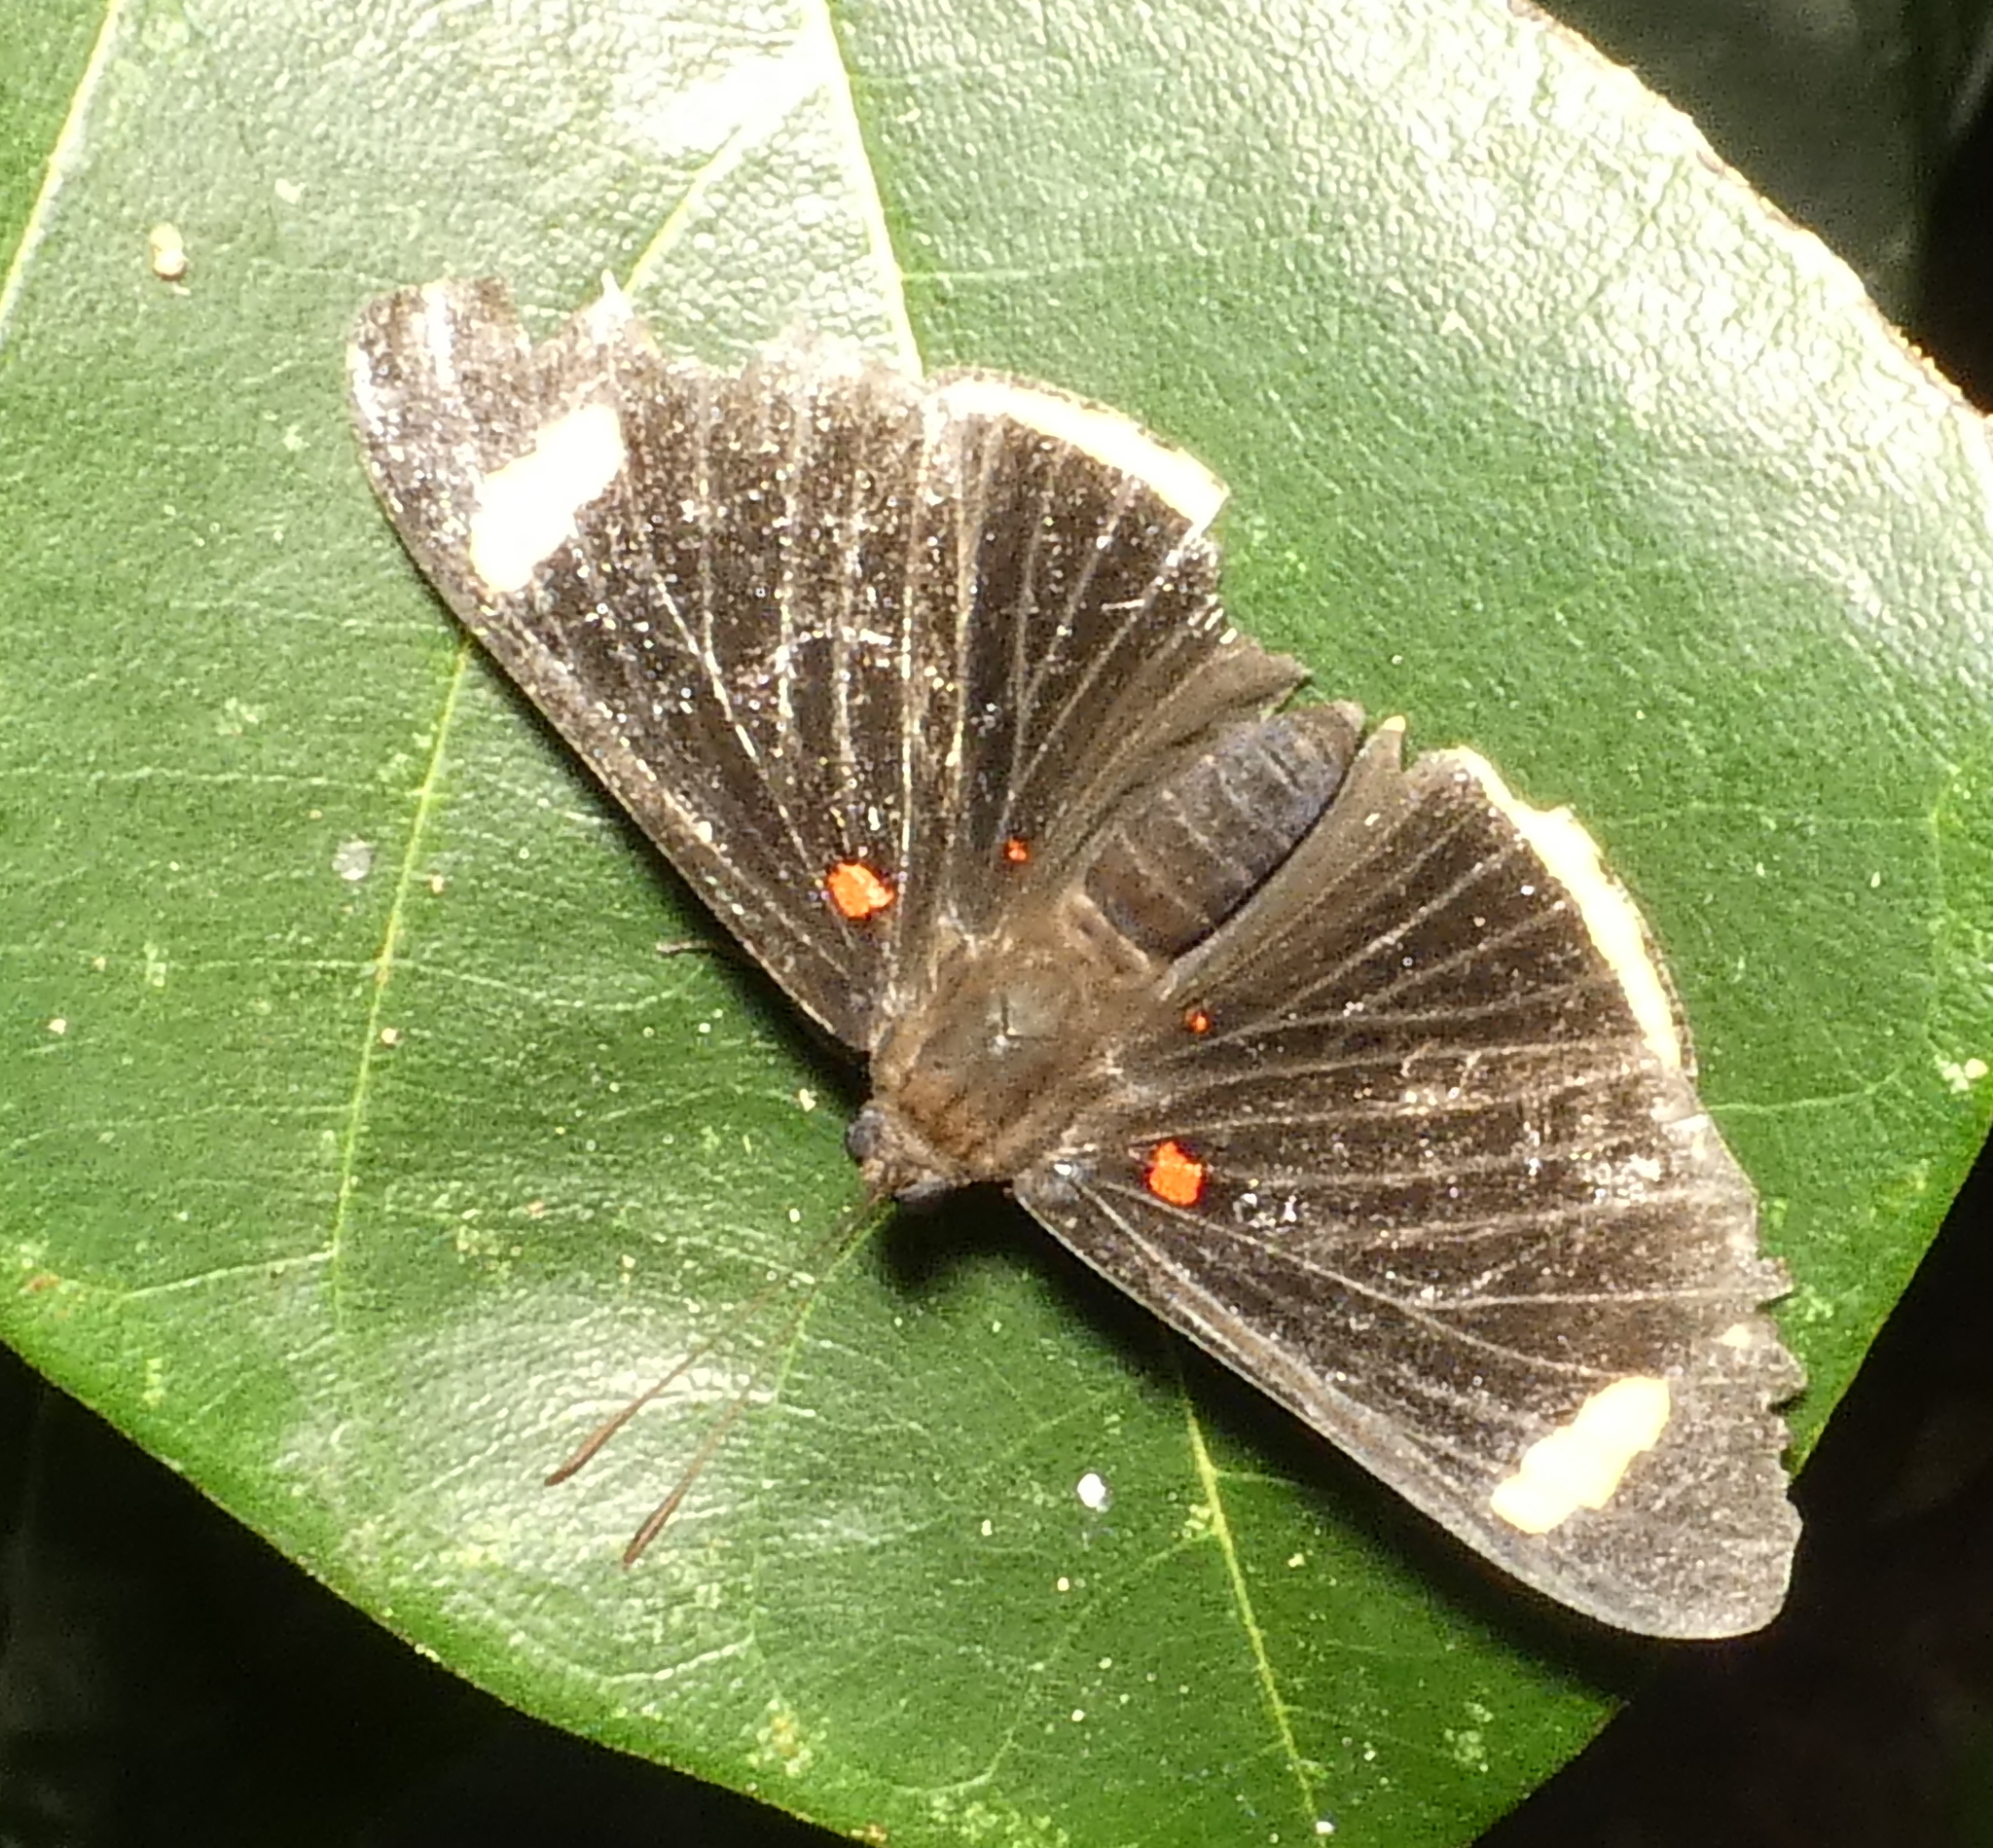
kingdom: Animalia
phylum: Arthropoda
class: Insecta
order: Lepidoptera
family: Lycaenidae
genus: Melanis
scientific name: Melanis xenia
